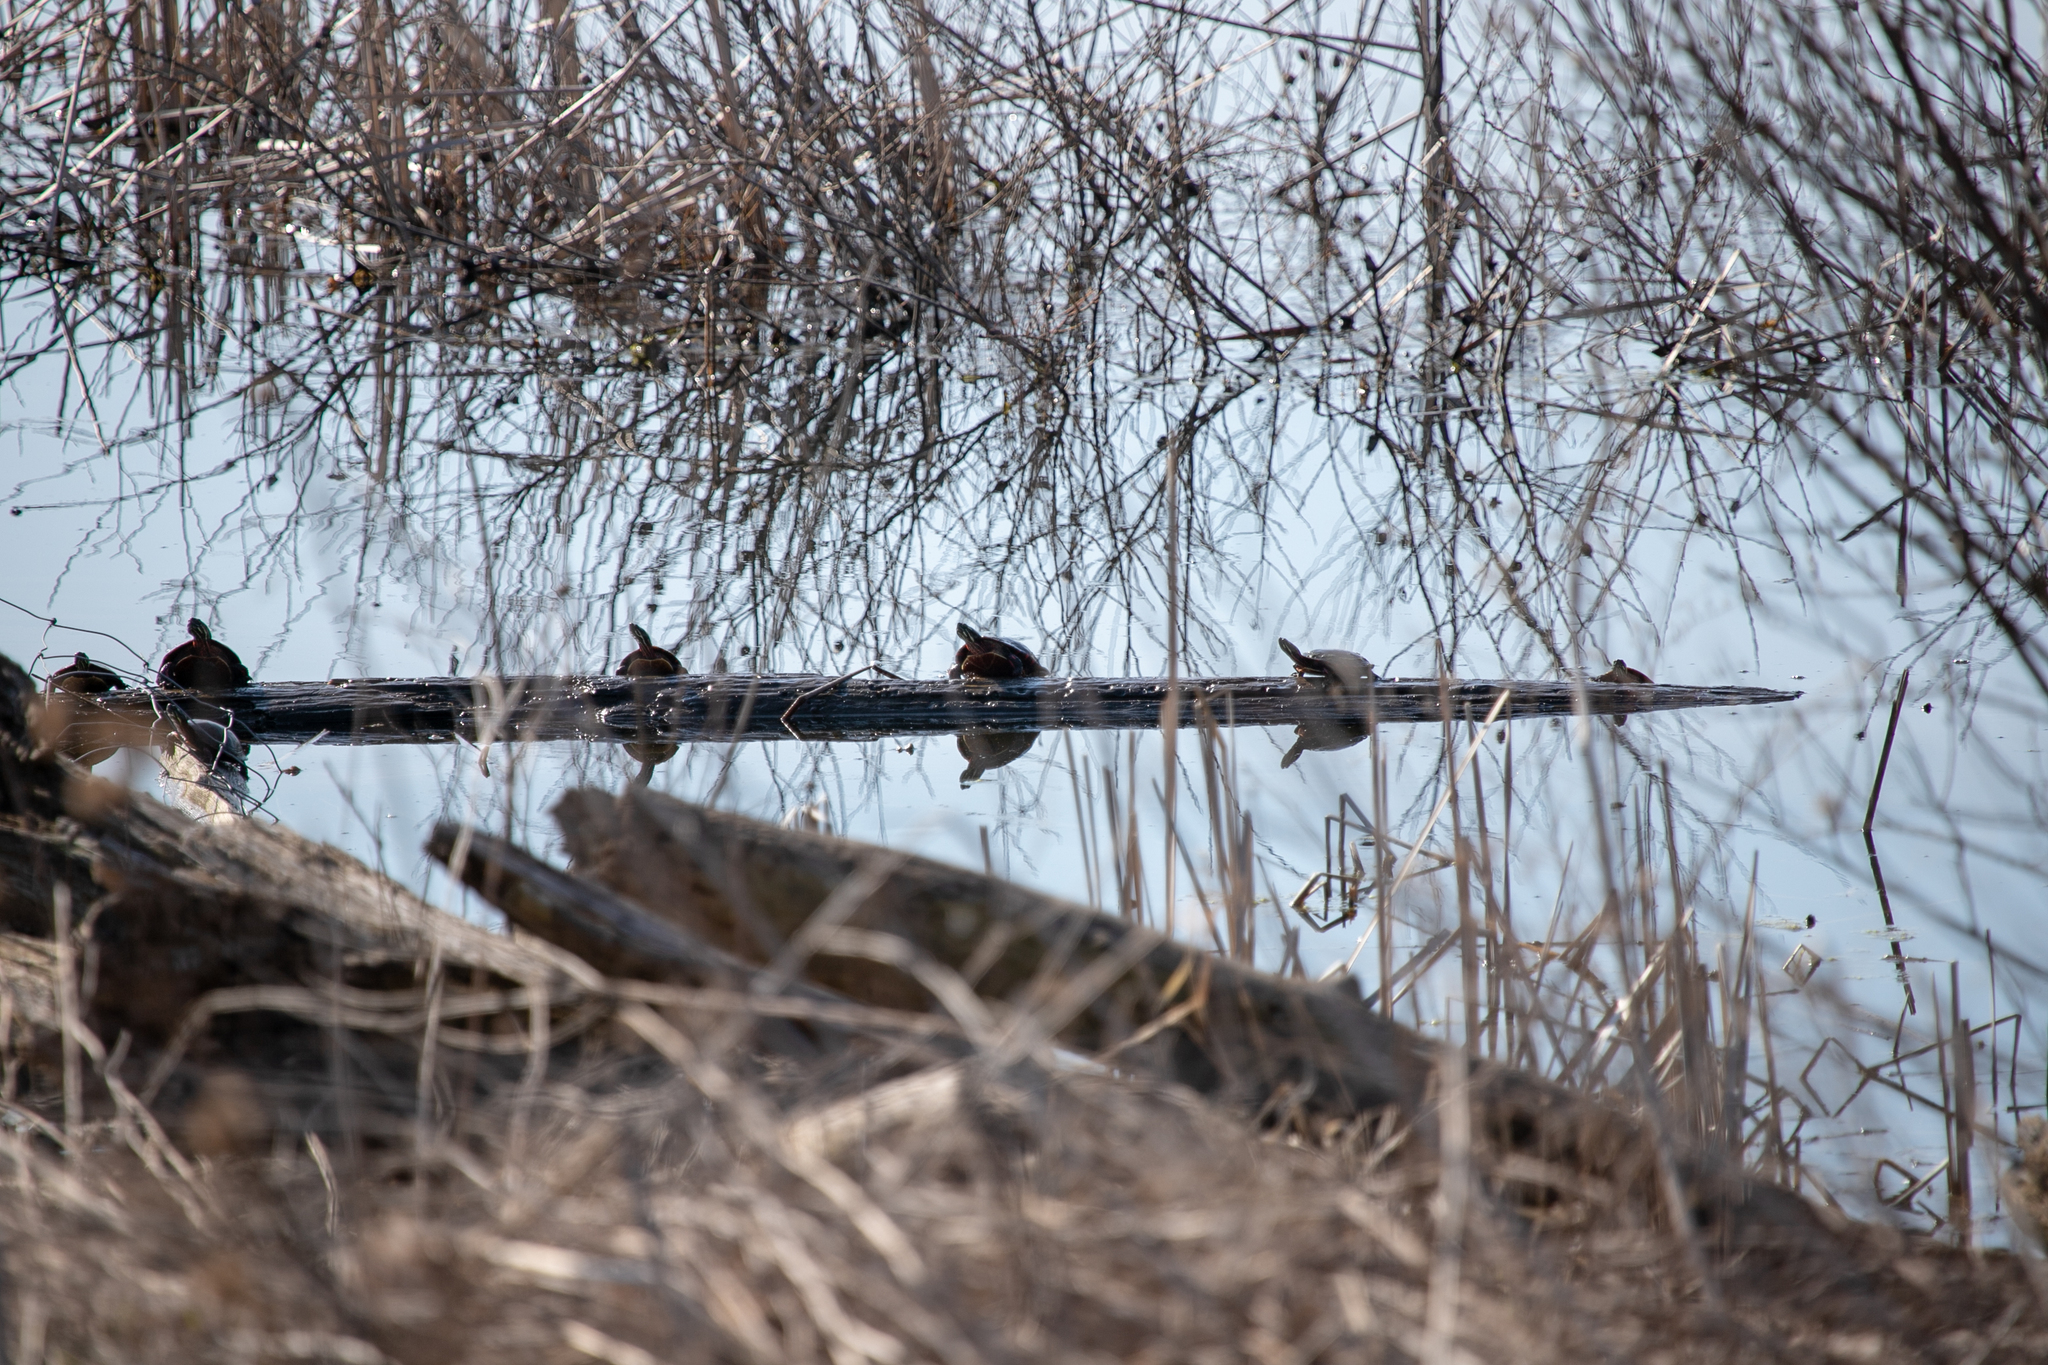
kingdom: Animalia
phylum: Chordata
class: Testudines
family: Emydidae
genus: Chrysemys
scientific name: Chrysemys picta
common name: Painted turtle
